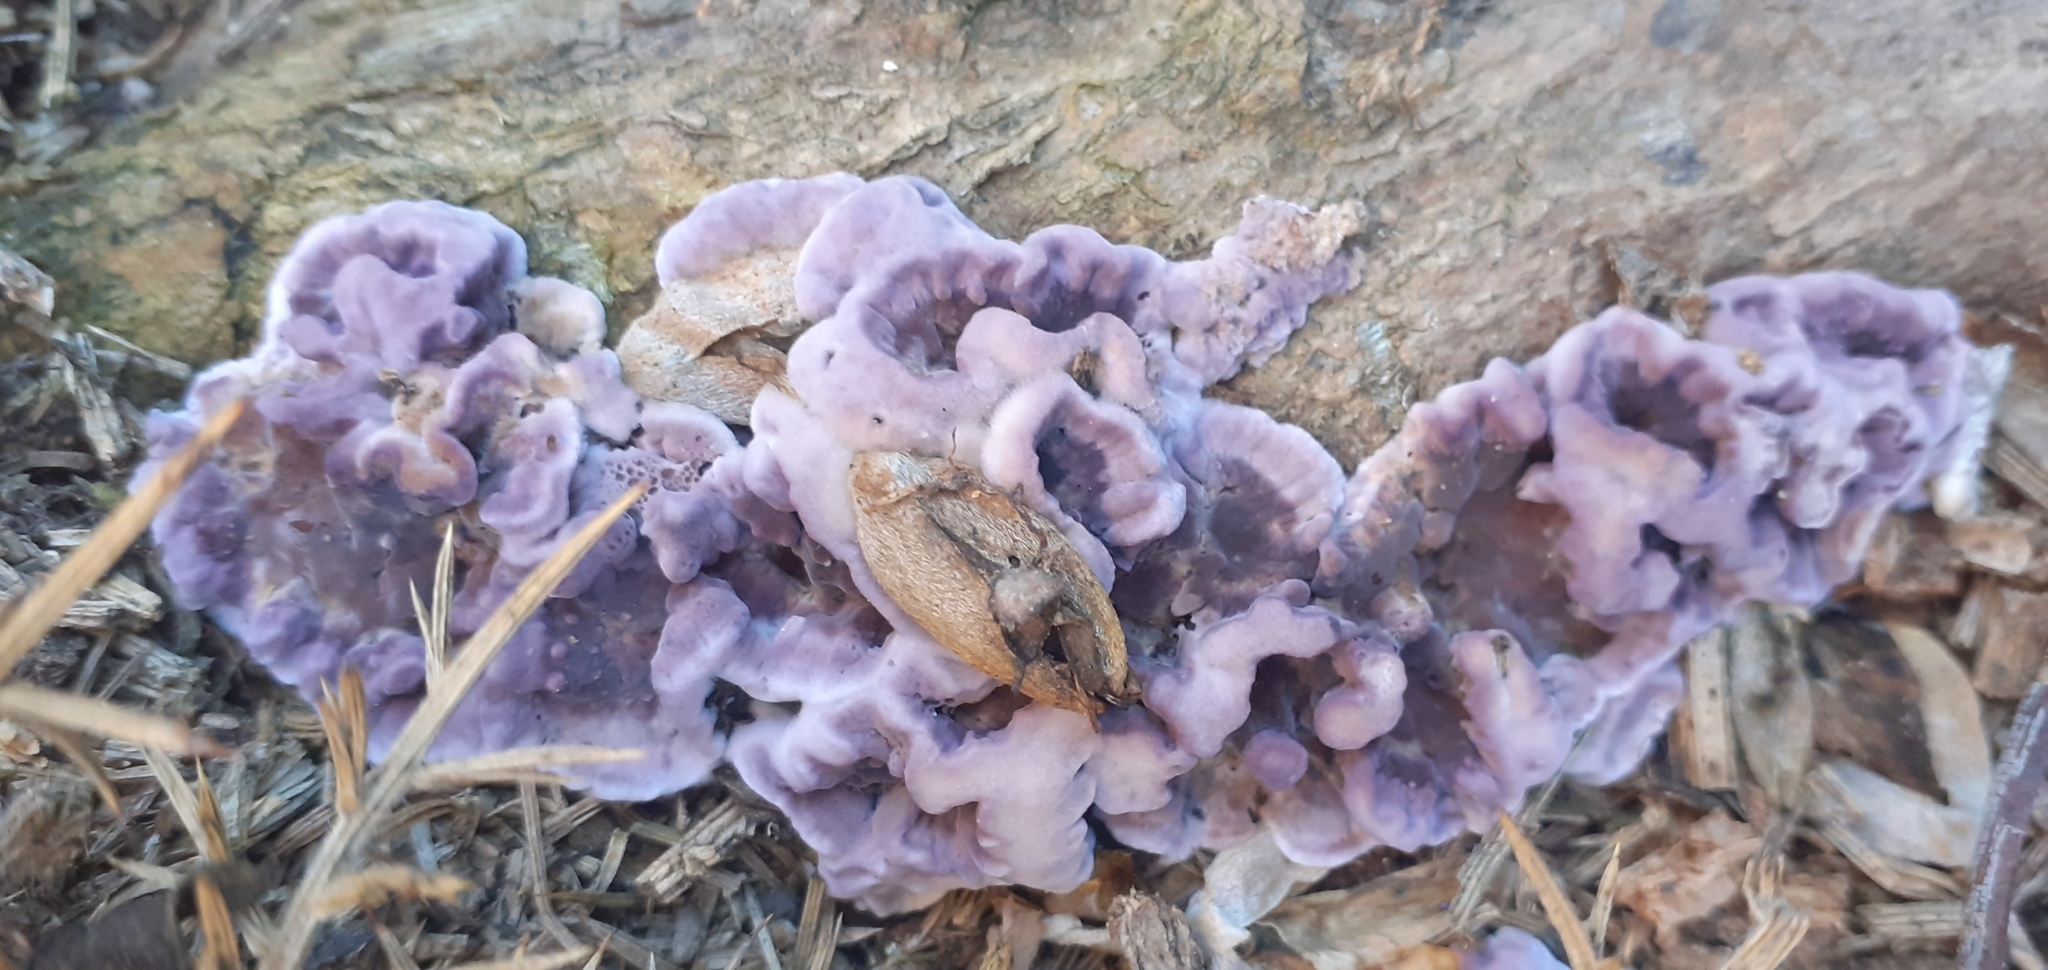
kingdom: Fungi
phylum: Basidiomycota
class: Agaricomycetes
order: Agaricales
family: Cyphellaceae
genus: Chondrostereum
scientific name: Chondrostereum purpureum
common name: Silver leaf disease
